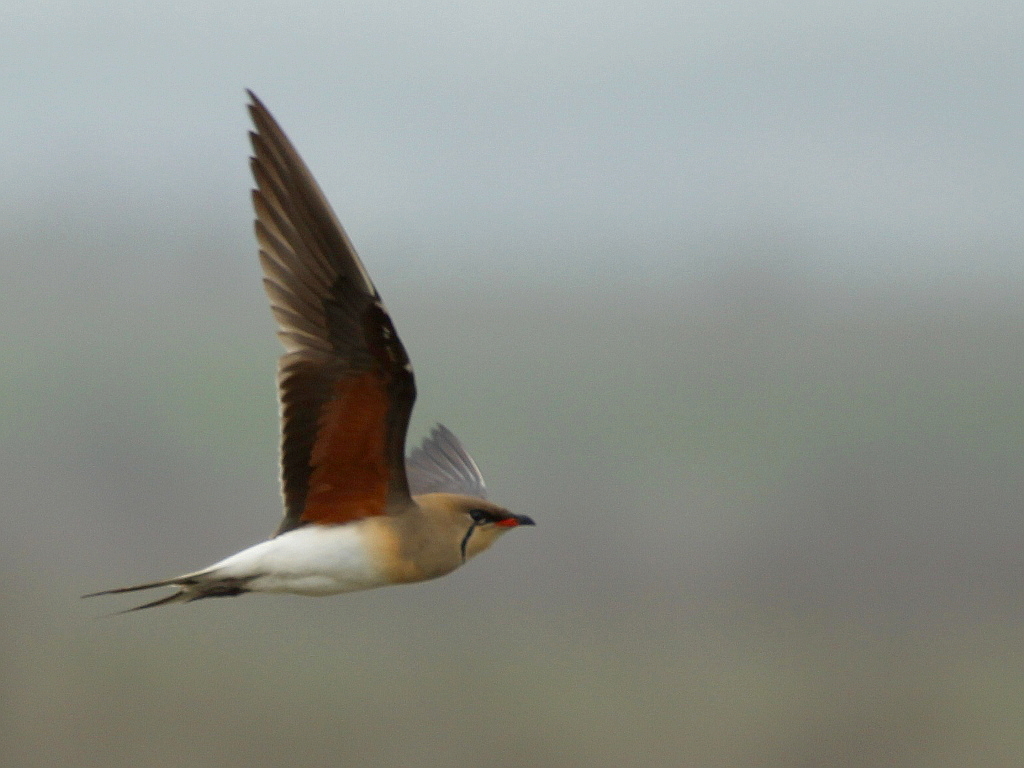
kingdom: Animalia
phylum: Chordata
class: Aves
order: Charadriiformes
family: Glareolidae
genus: Glareola
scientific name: Glareola pratincola
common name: Collared pratincole
